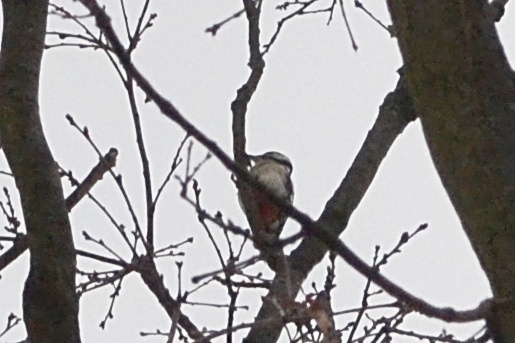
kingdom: Animalia
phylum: Chordata
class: Aves
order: Piciformes
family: Picidae
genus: Dendrocopos
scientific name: Dendrocopos major
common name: Great spotted woodpecker
